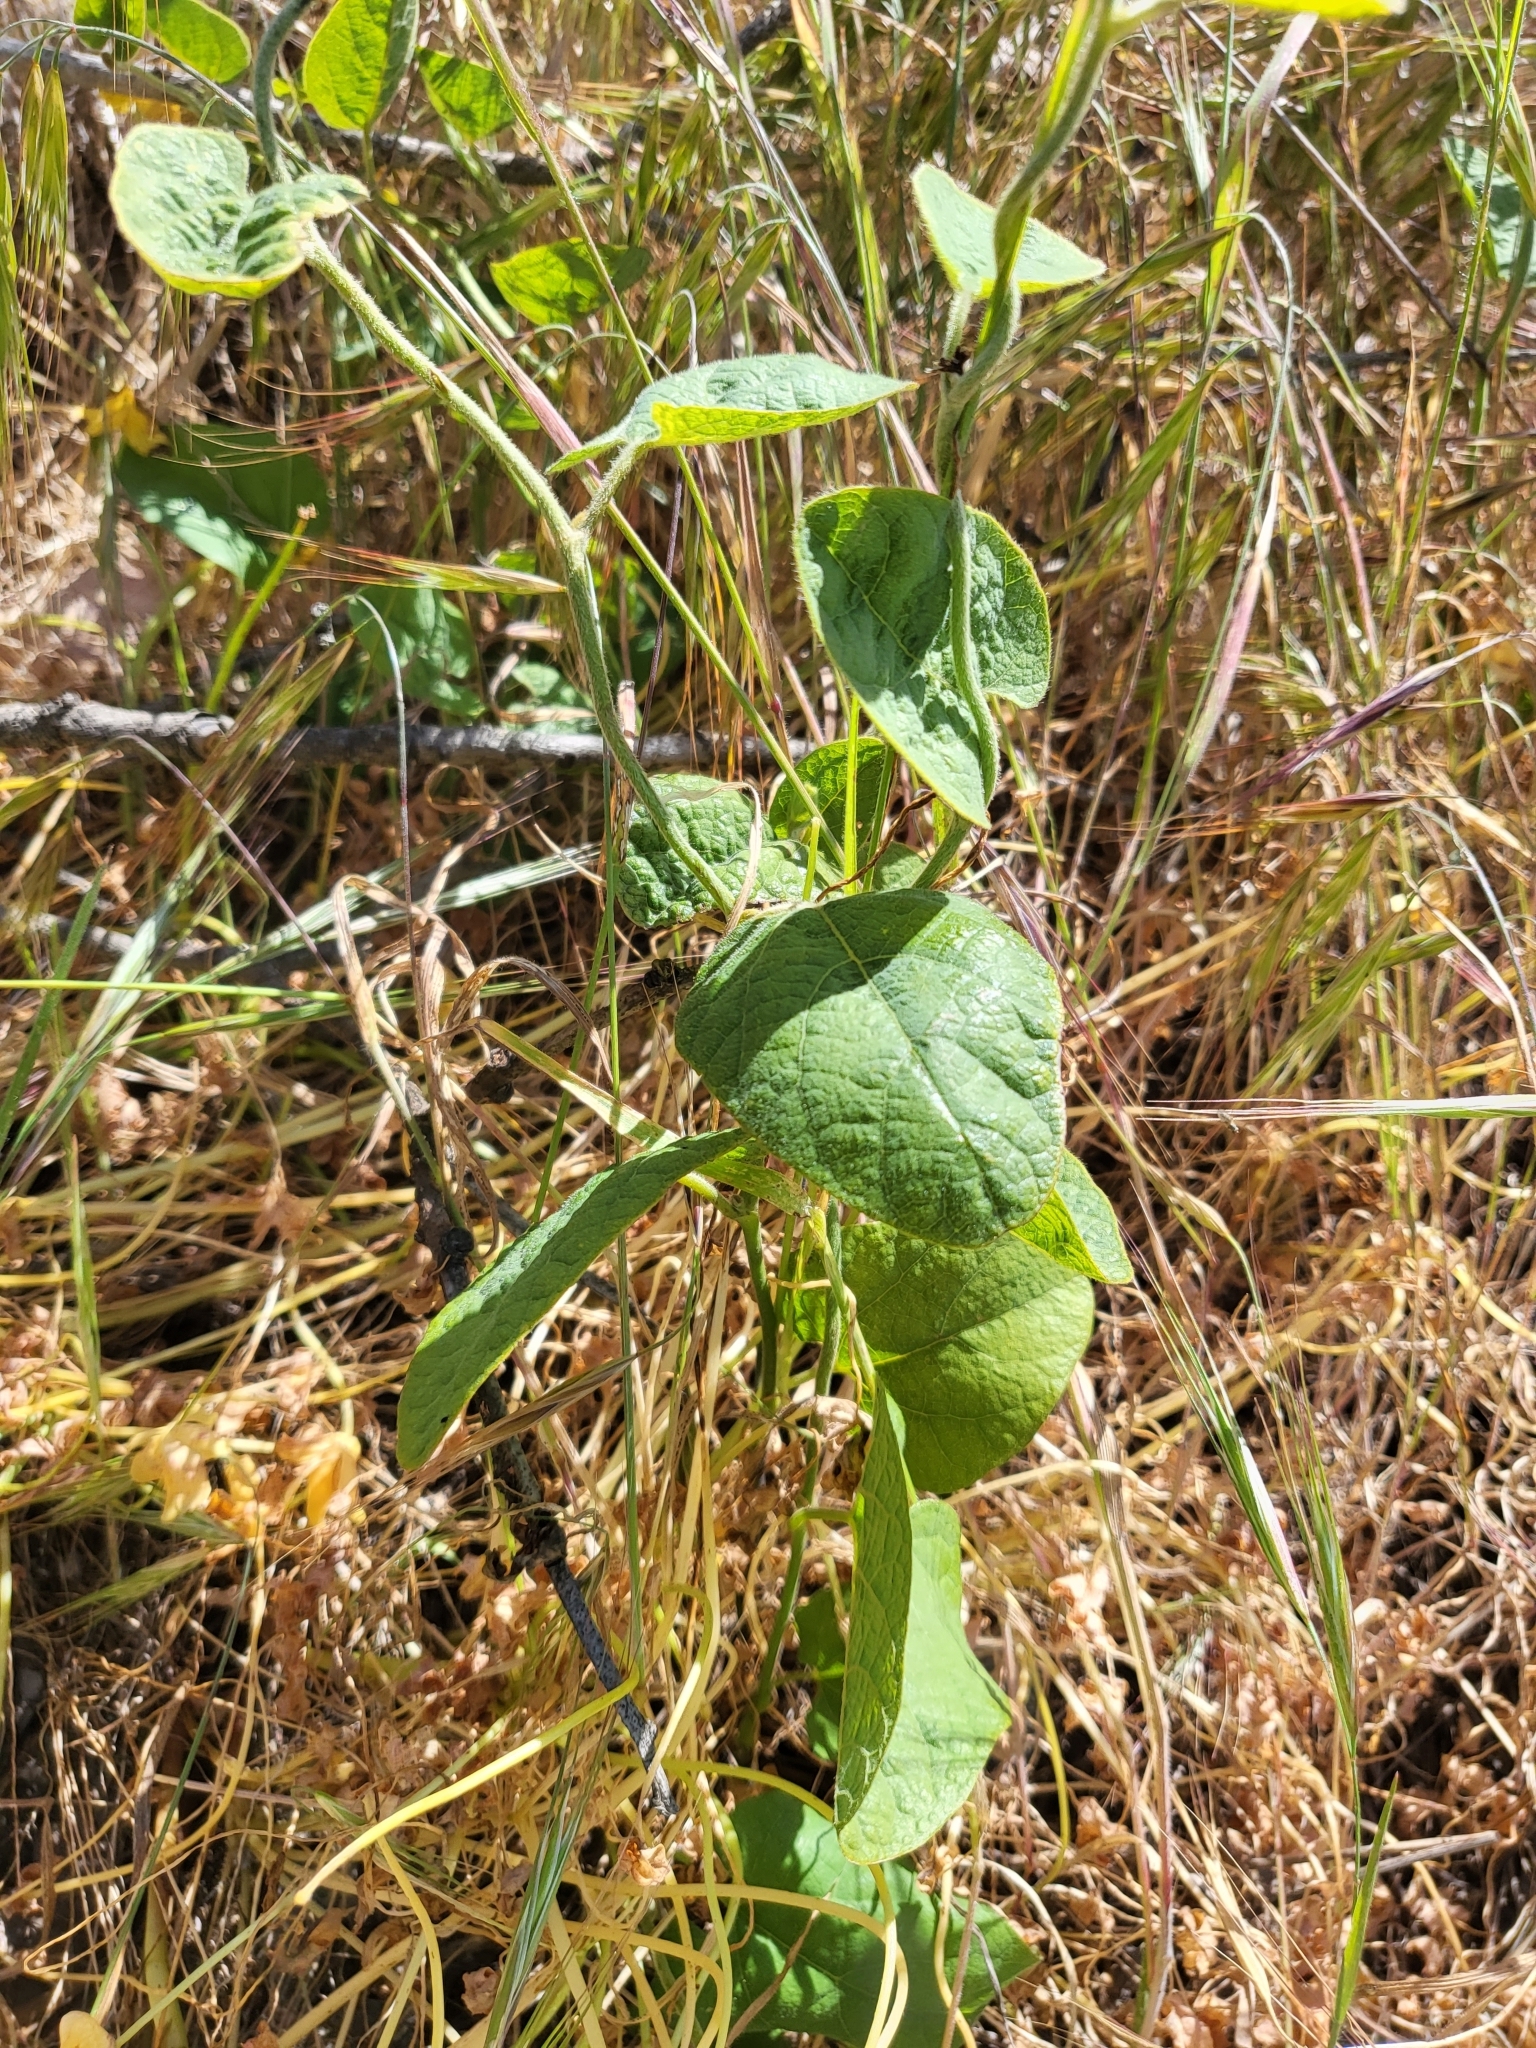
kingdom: Plantae
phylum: Tracheophyta
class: Magnoliopsida
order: Piperales
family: Aristolochiaceae
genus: Isotrema
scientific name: Isotrema californicum
